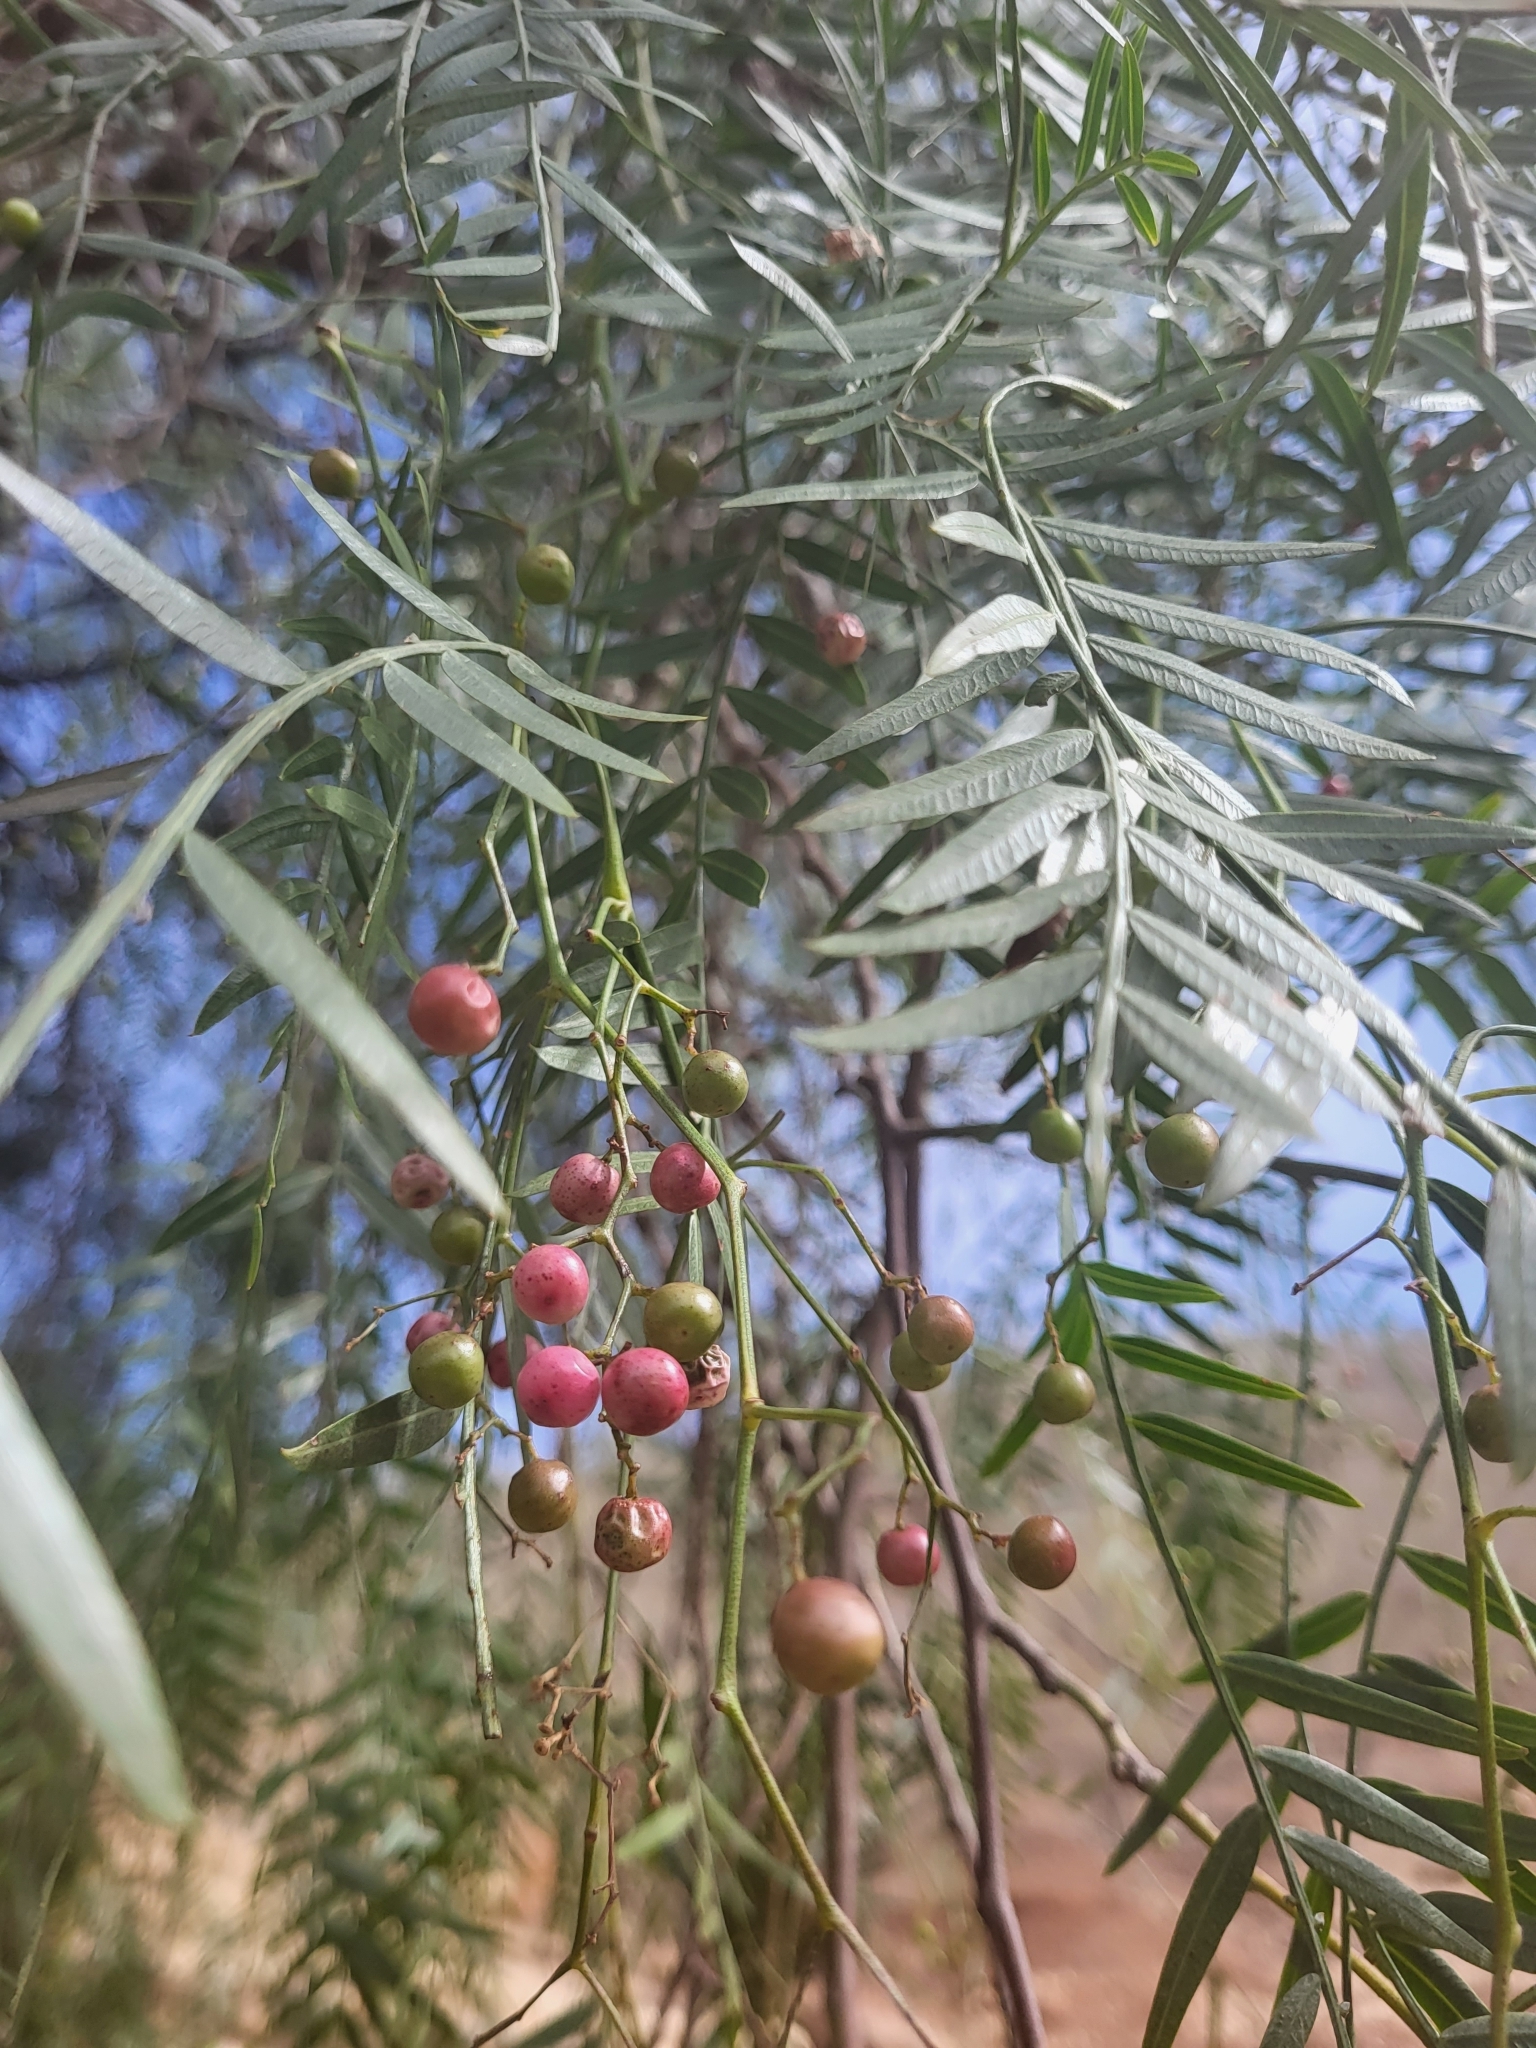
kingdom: Plantae
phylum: Tracheophyta
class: Magnoliopsida
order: Sapindales
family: Anacardiaceae
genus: Schinus
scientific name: Schinus molle
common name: Peruvian peppertree
